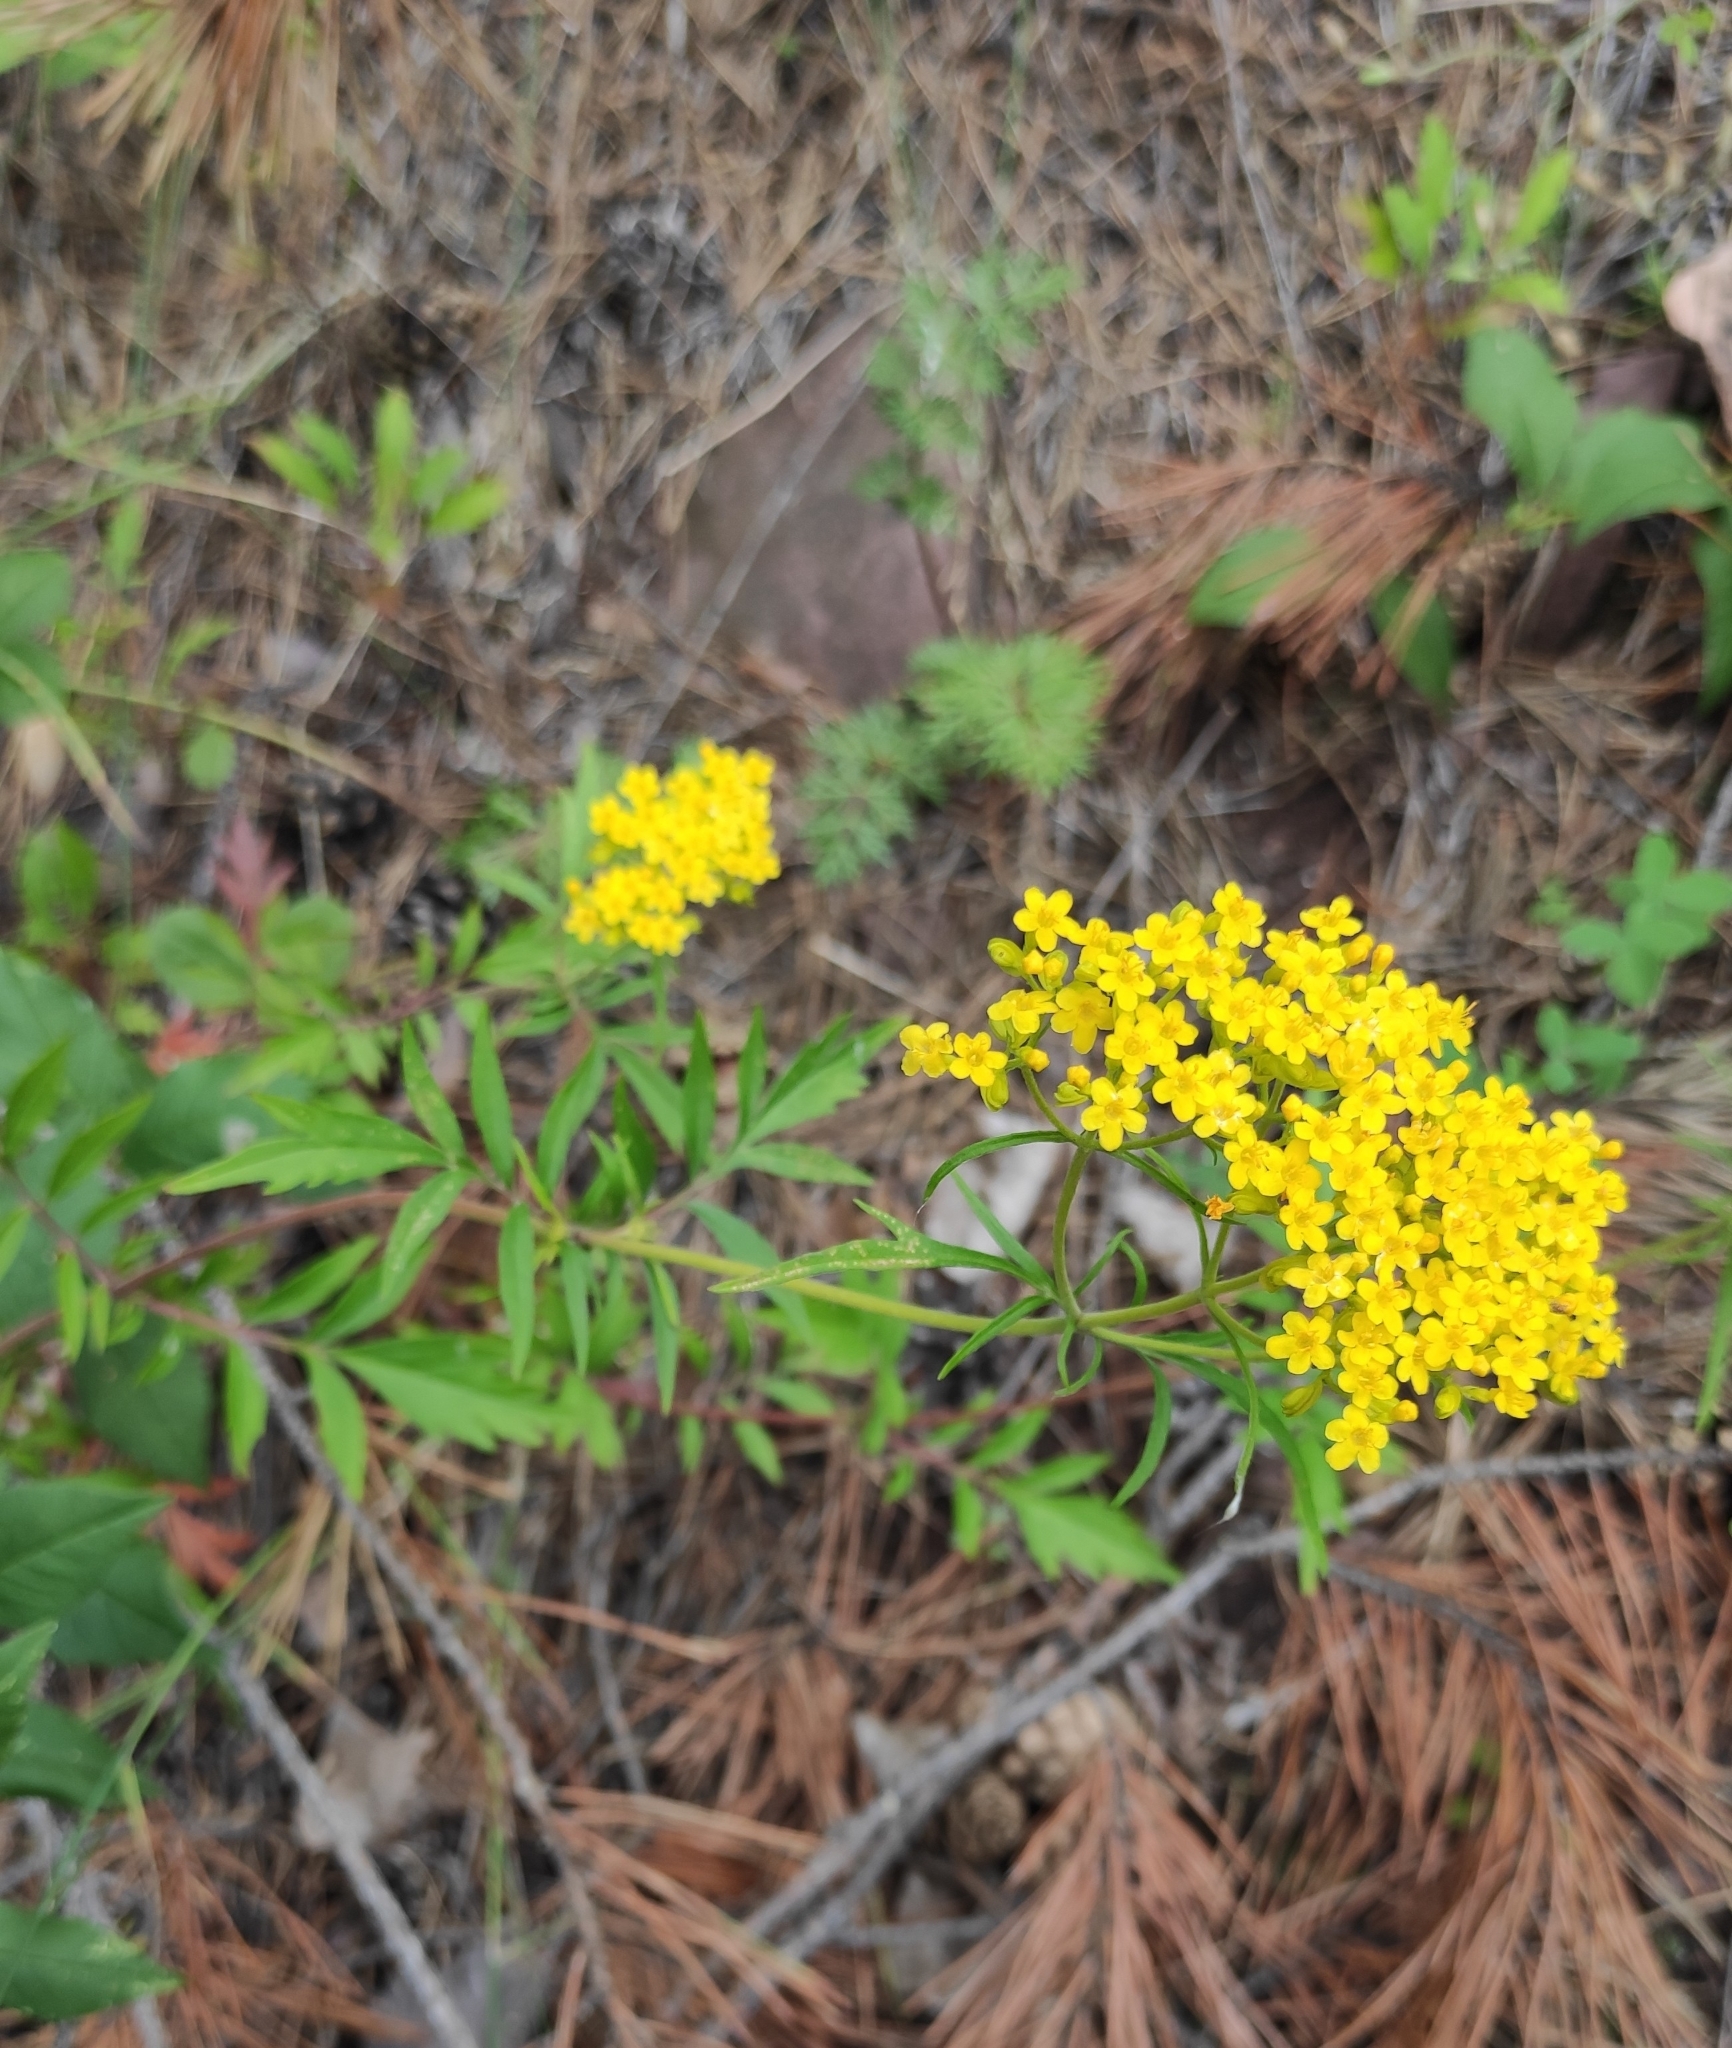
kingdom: Plantae
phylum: Tracheophyta
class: Magnoliopsida
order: Dipsacales
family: Caprifoliaceae
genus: Patrinia
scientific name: Patrinia rupestris
